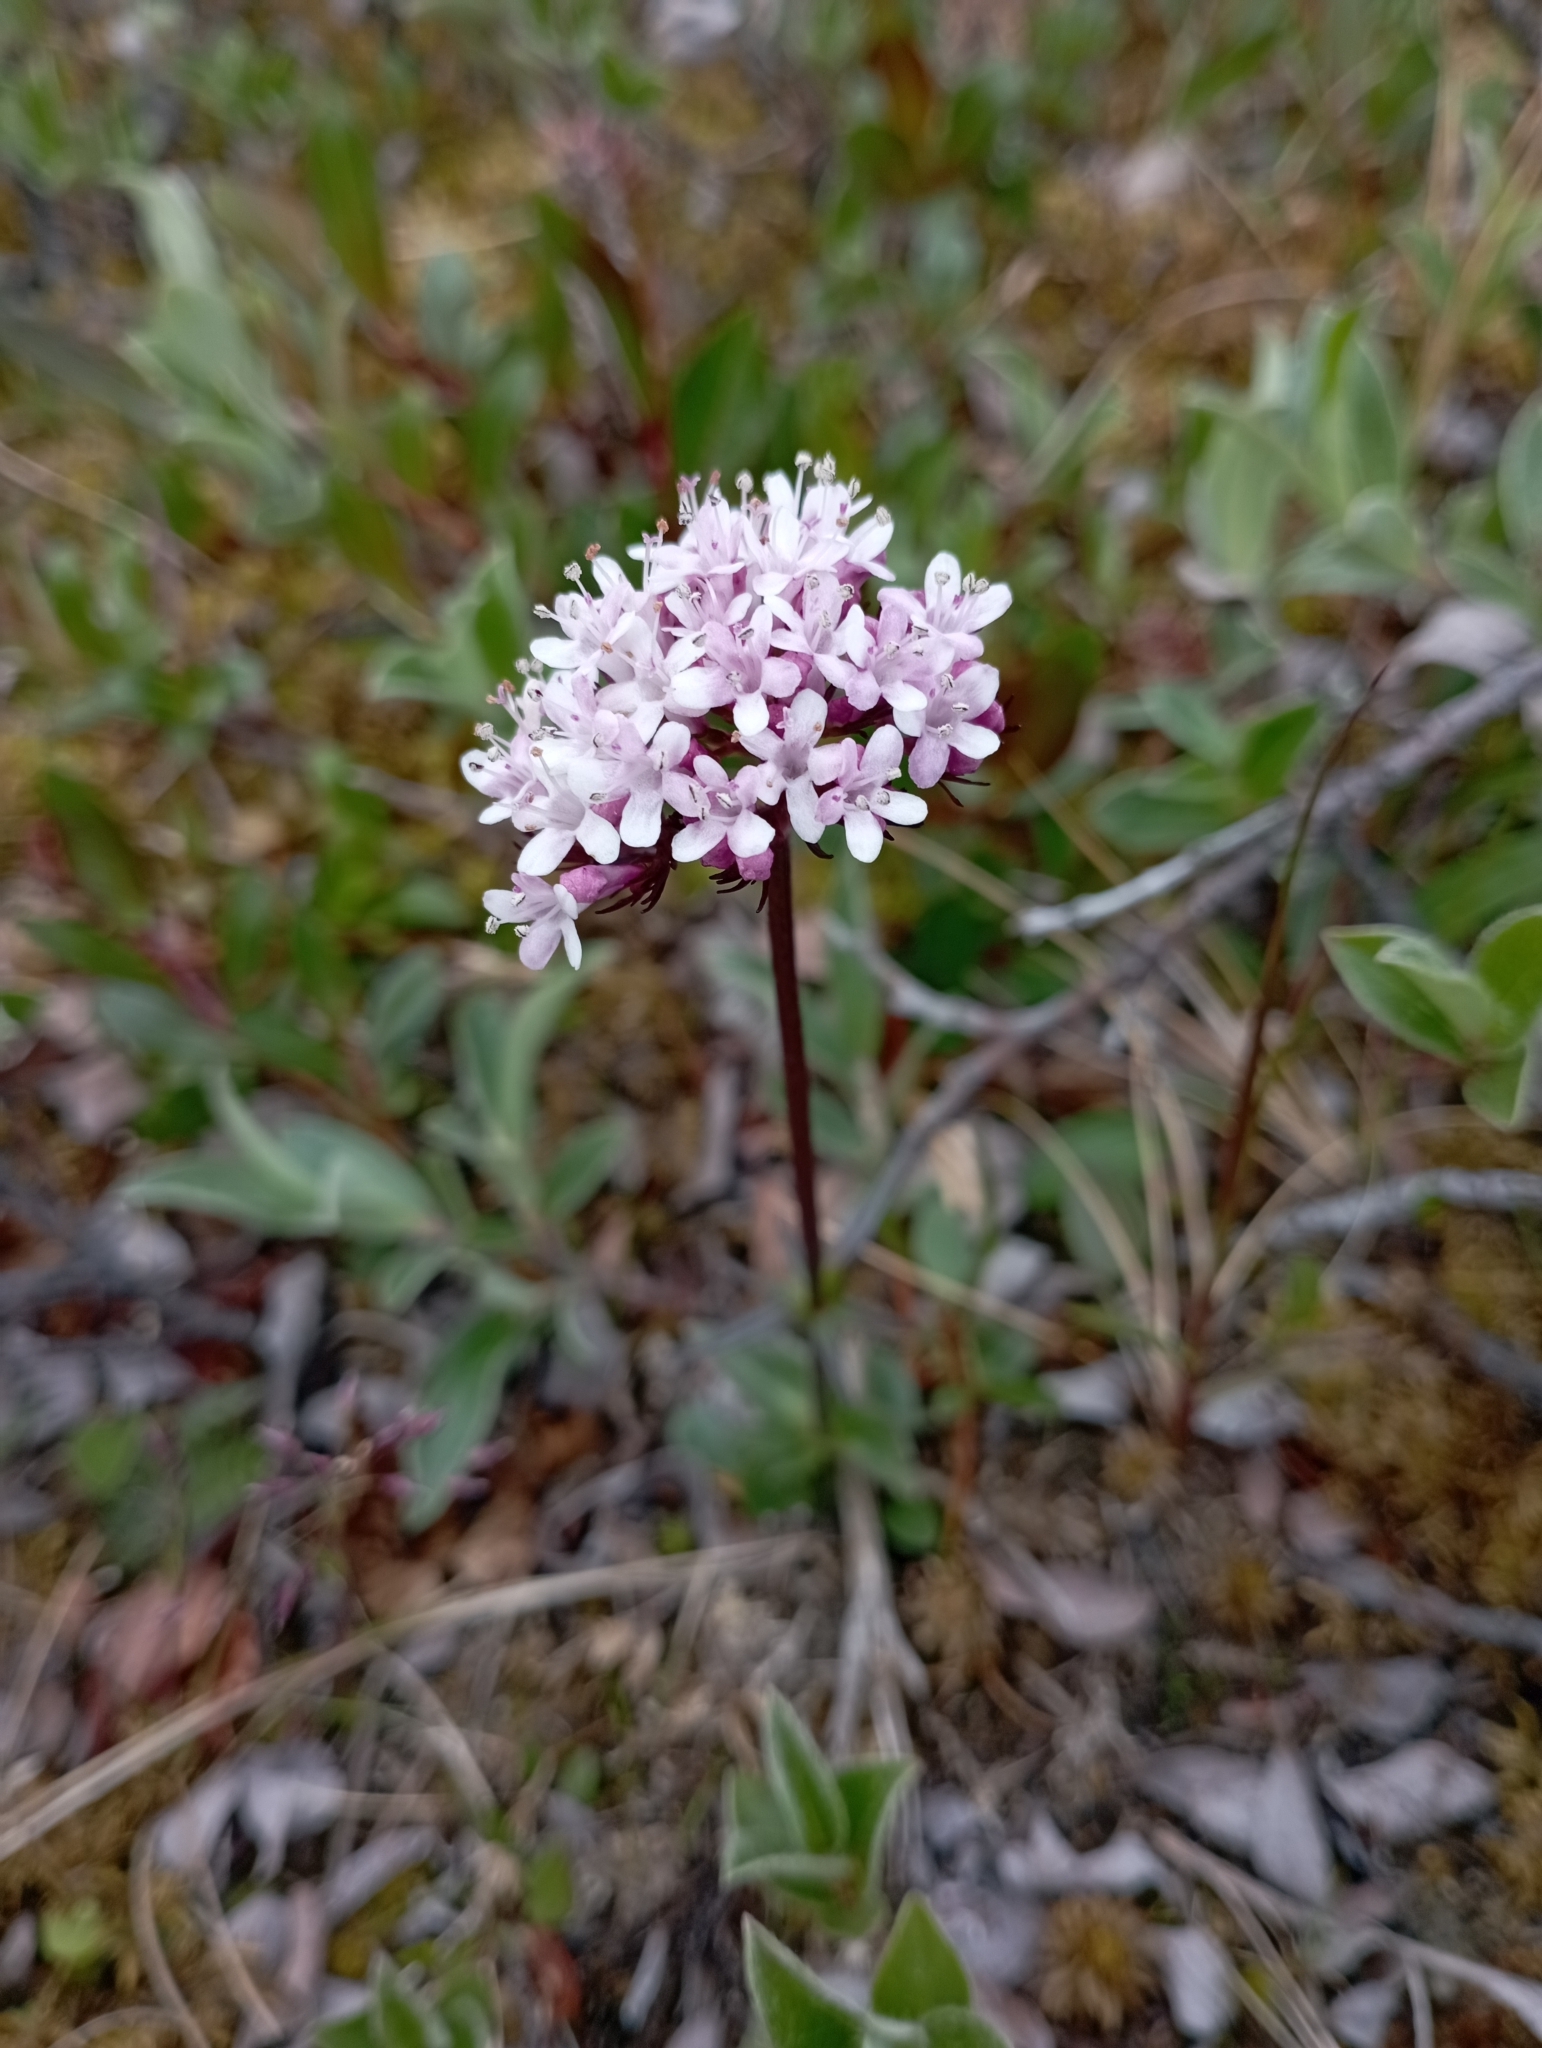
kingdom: Plantae
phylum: Tracheophyta
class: Magnoliopsida
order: Dipsacales
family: Caprifoliaceae
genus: Valeriana
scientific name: Valeriana capitata
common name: Capitate valerian
